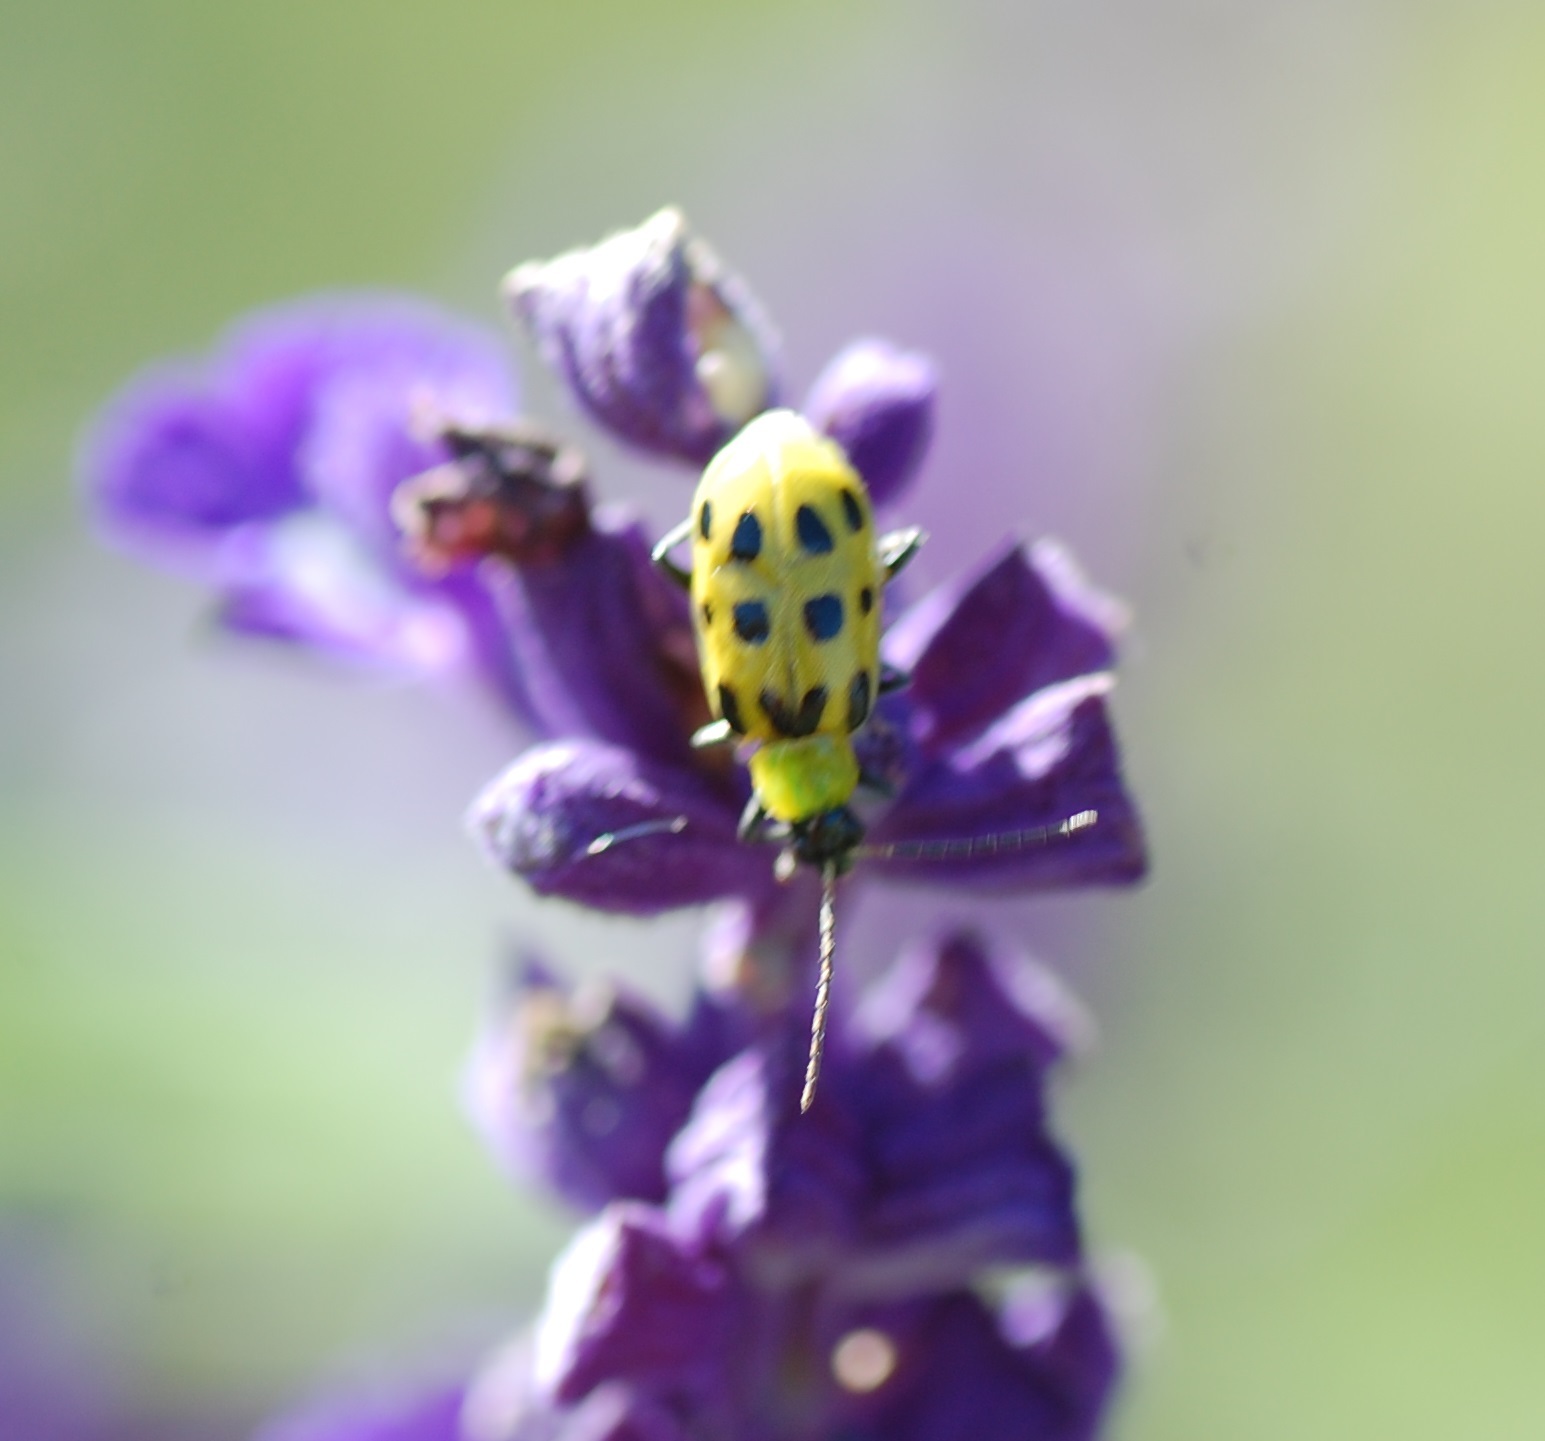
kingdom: Animalia
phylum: Arthropoda
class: Insecta
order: Coleoptera
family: Chrysomelidae
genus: Diabrotica
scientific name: Diabrotica undecimpunctata
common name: Spotted cucumber beetle
